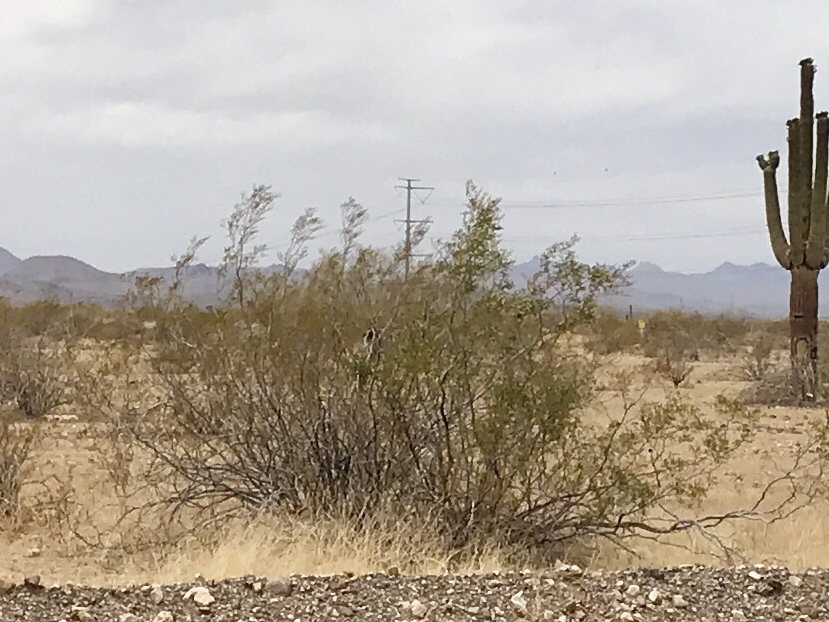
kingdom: Plantae
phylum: Tracheophyta
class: Magnoliopsida
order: Zygophyllales
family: Zygophyllaceae
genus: Larrea
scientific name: Larrea tridentata
